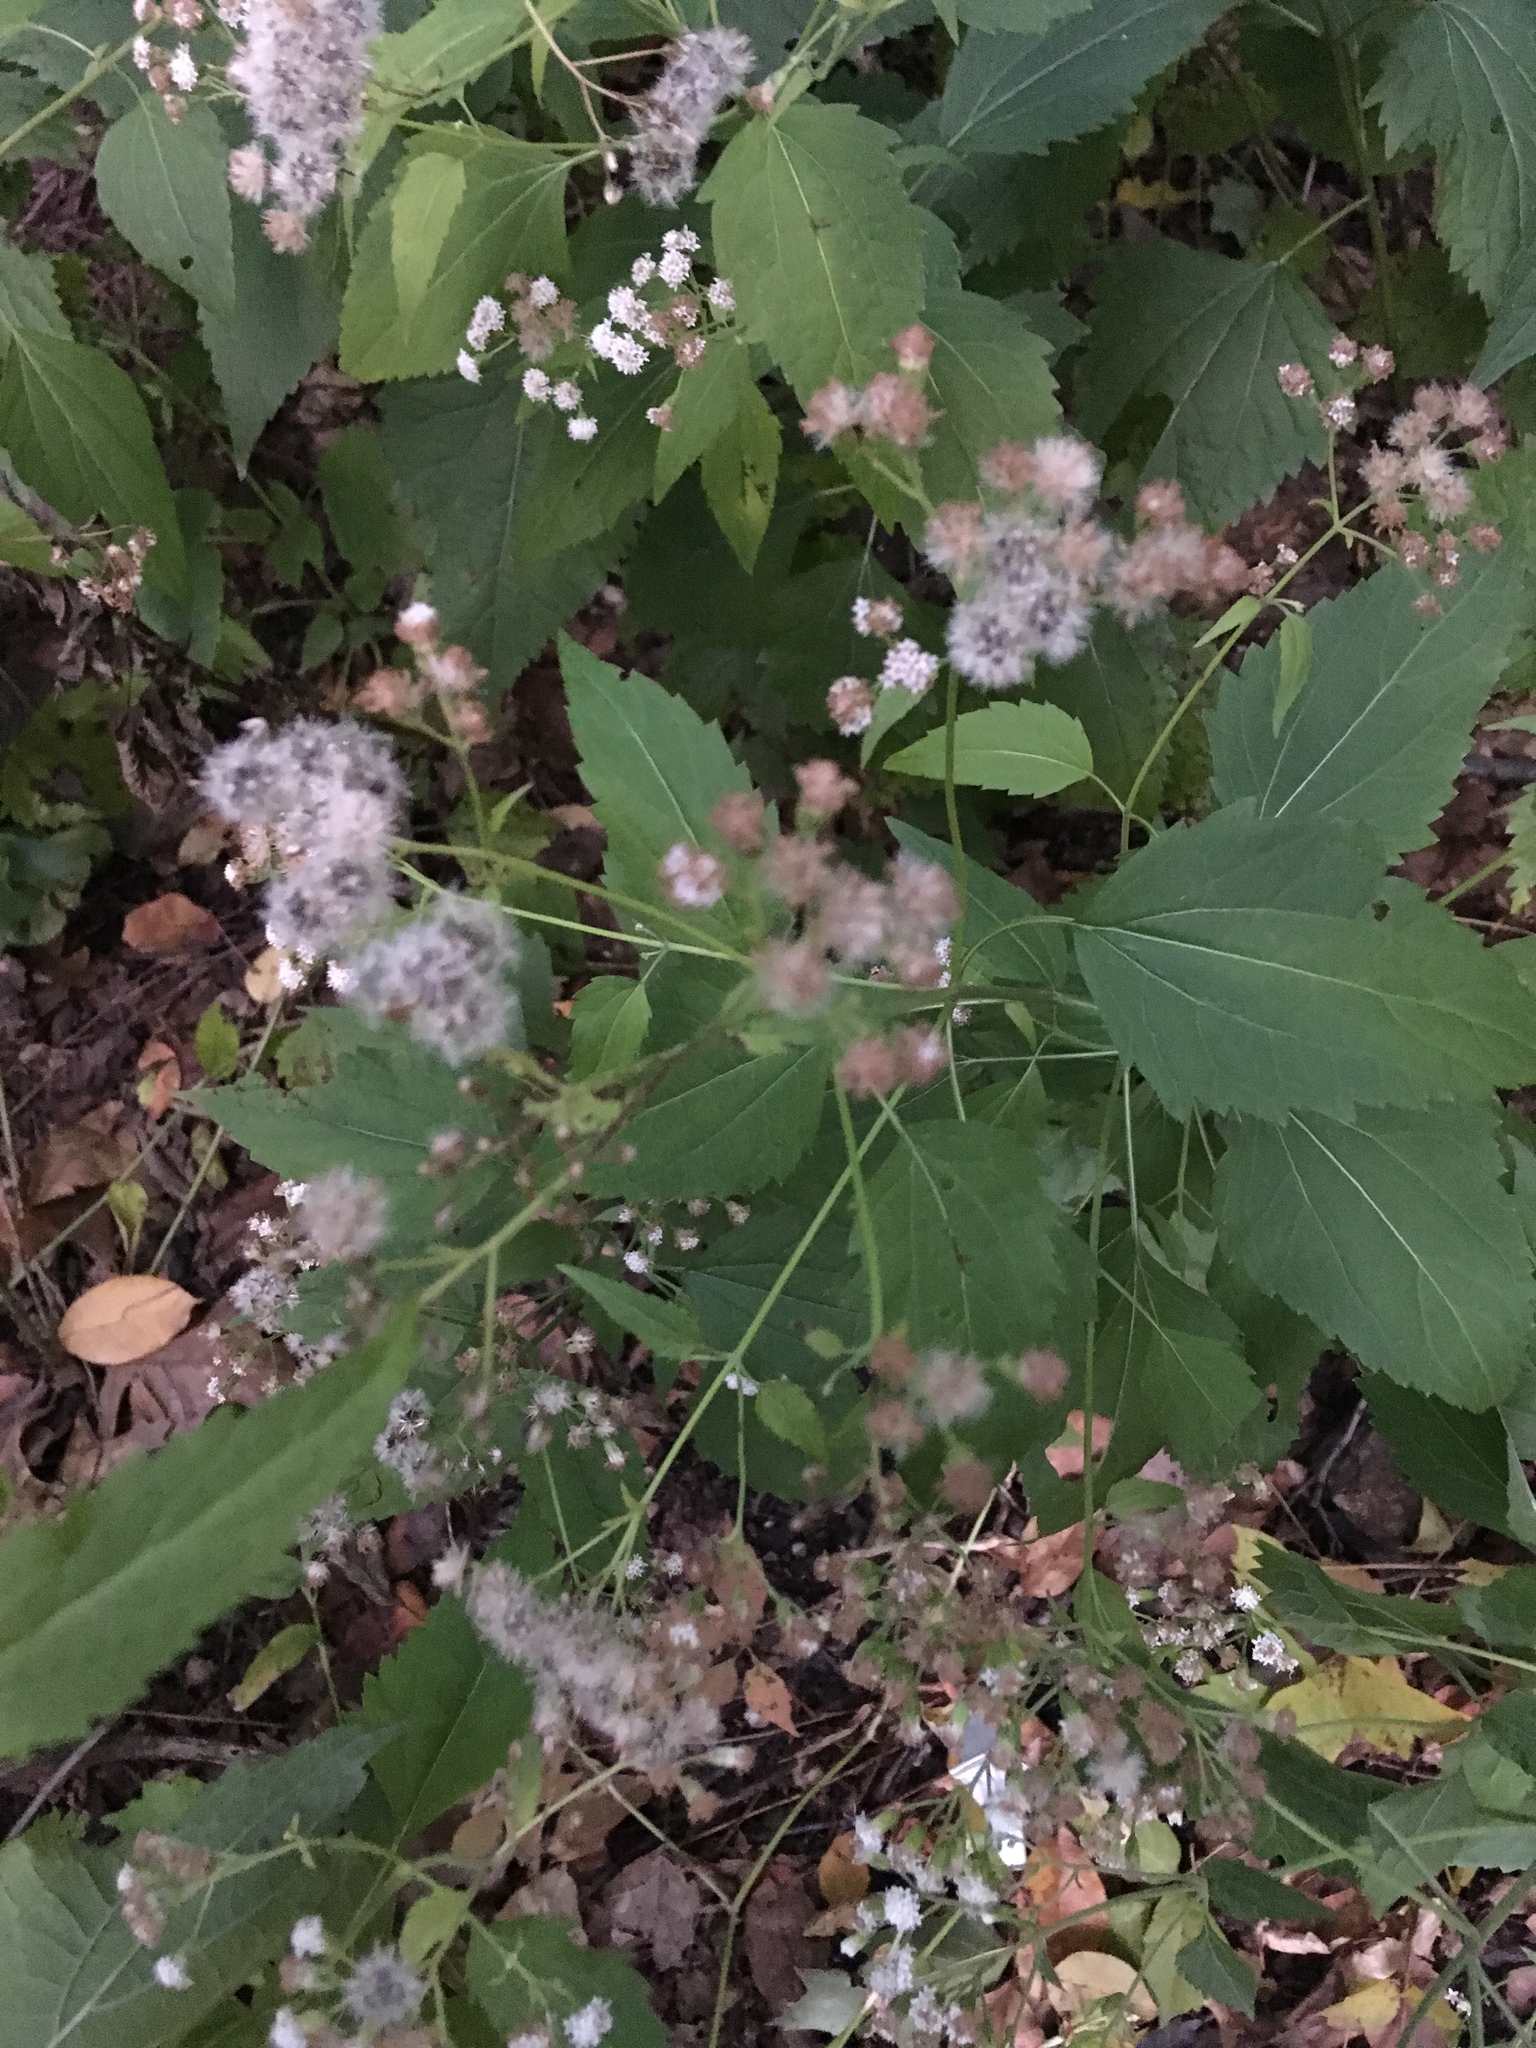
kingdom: Plantae
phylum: Tracheophyta
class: Magnoliopsida
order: Asterales
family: Asteraceae
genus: Ageratina
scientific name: Ageratina altissima
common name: White snakeroot
